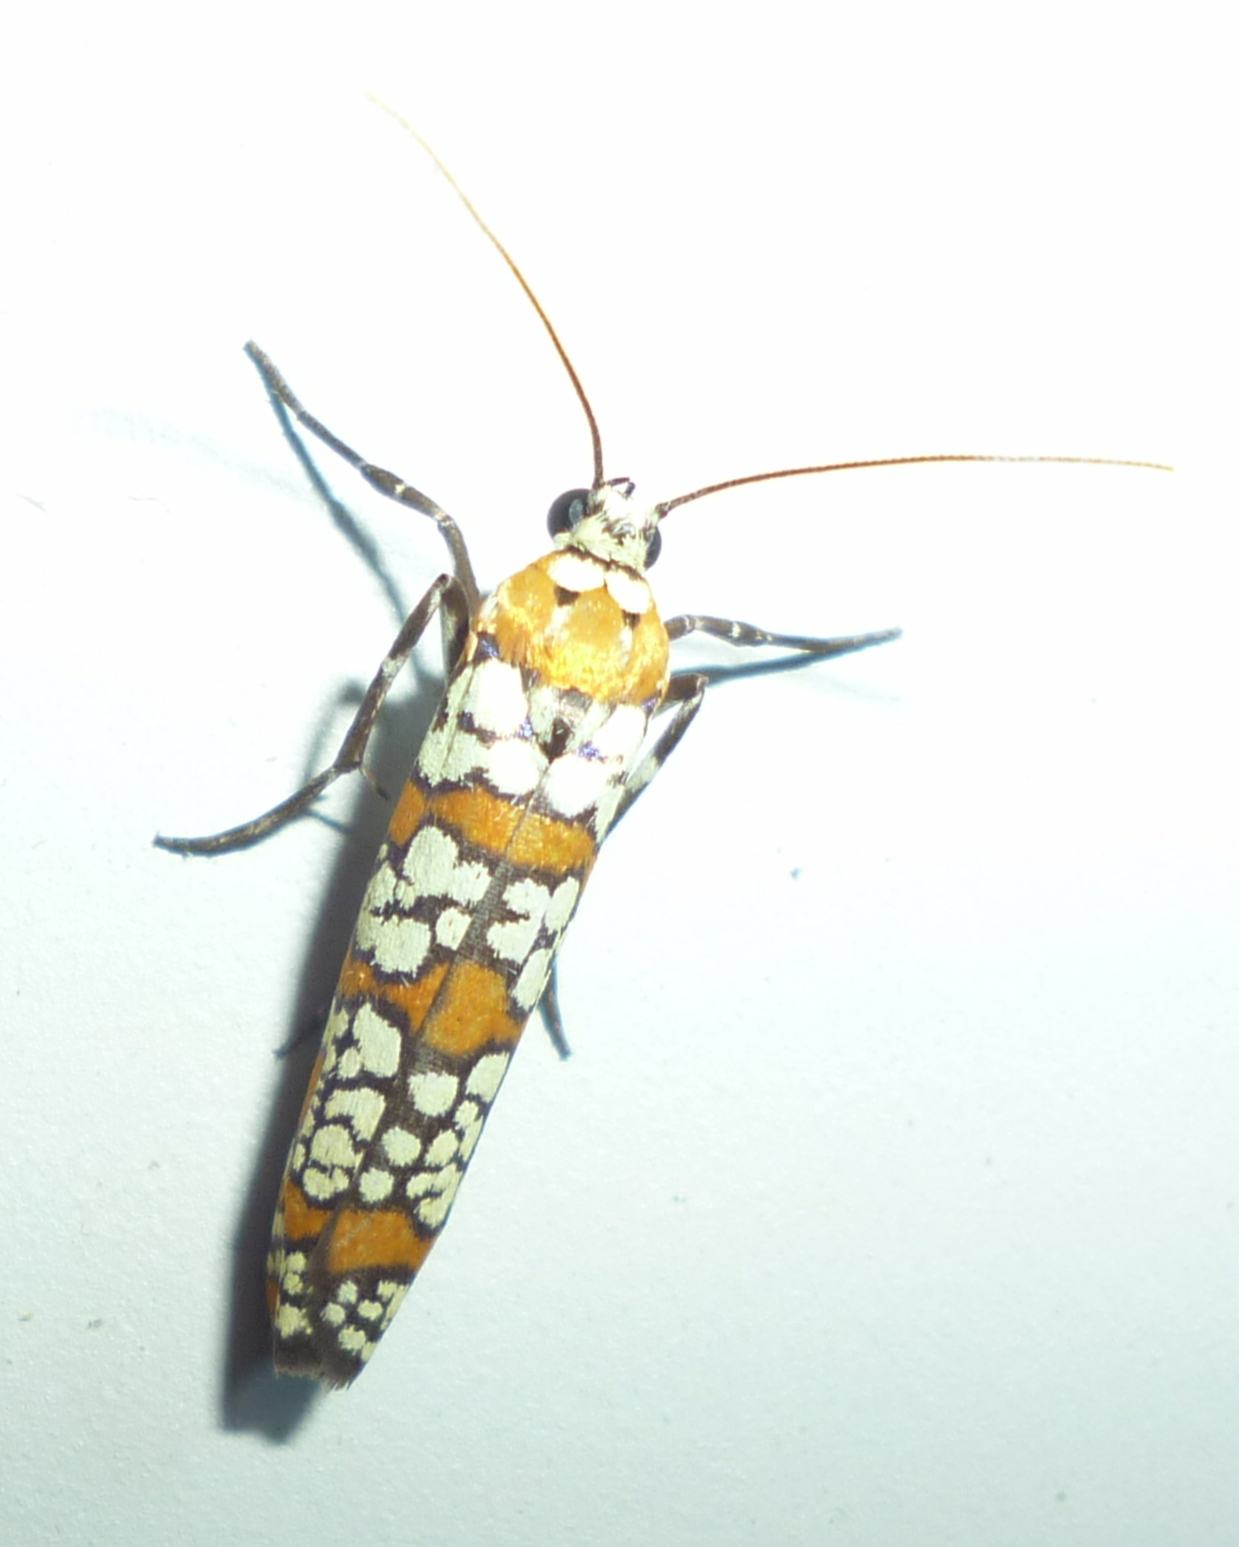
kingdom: Animalia
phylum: Arthropoda
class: Insecta
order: Lepidoptera
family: Attevidae
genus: Atteva
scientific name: Atteva punctella
